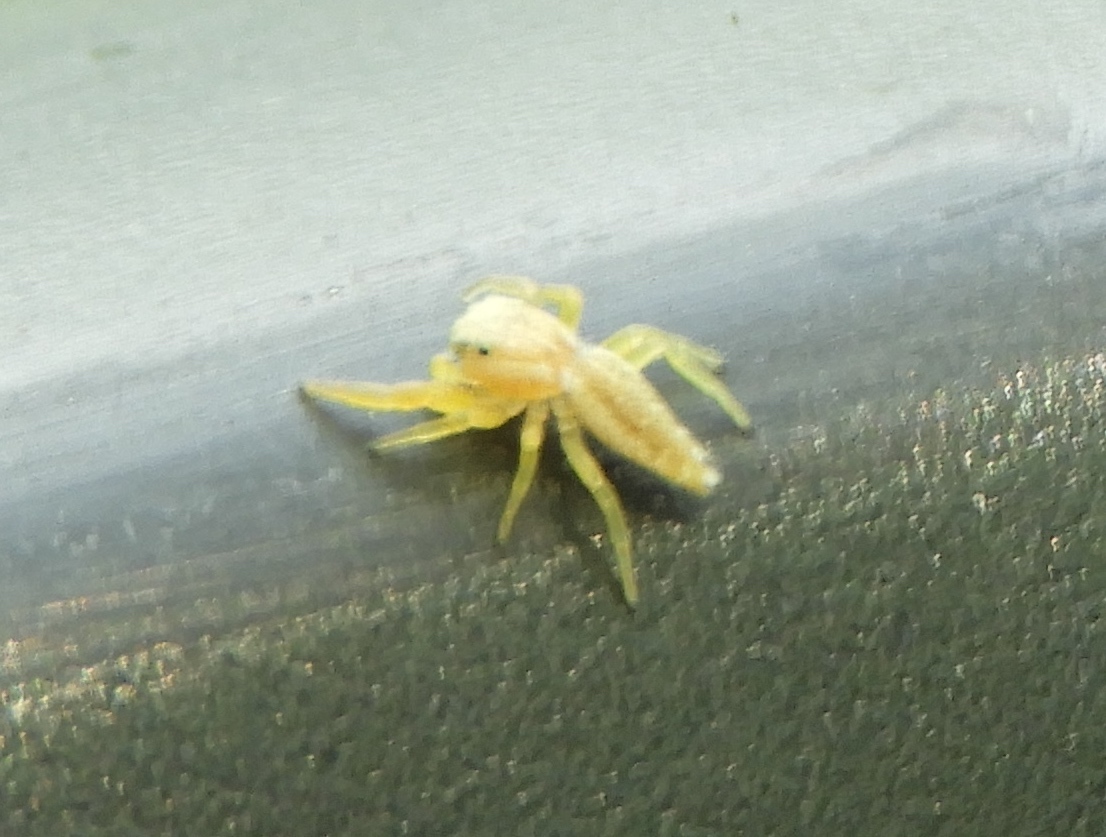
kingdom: Animalia
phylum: Arthropoda
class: Arachnida
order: Araneae
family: Salticidae
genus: Hentzia
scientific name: Hentzia
